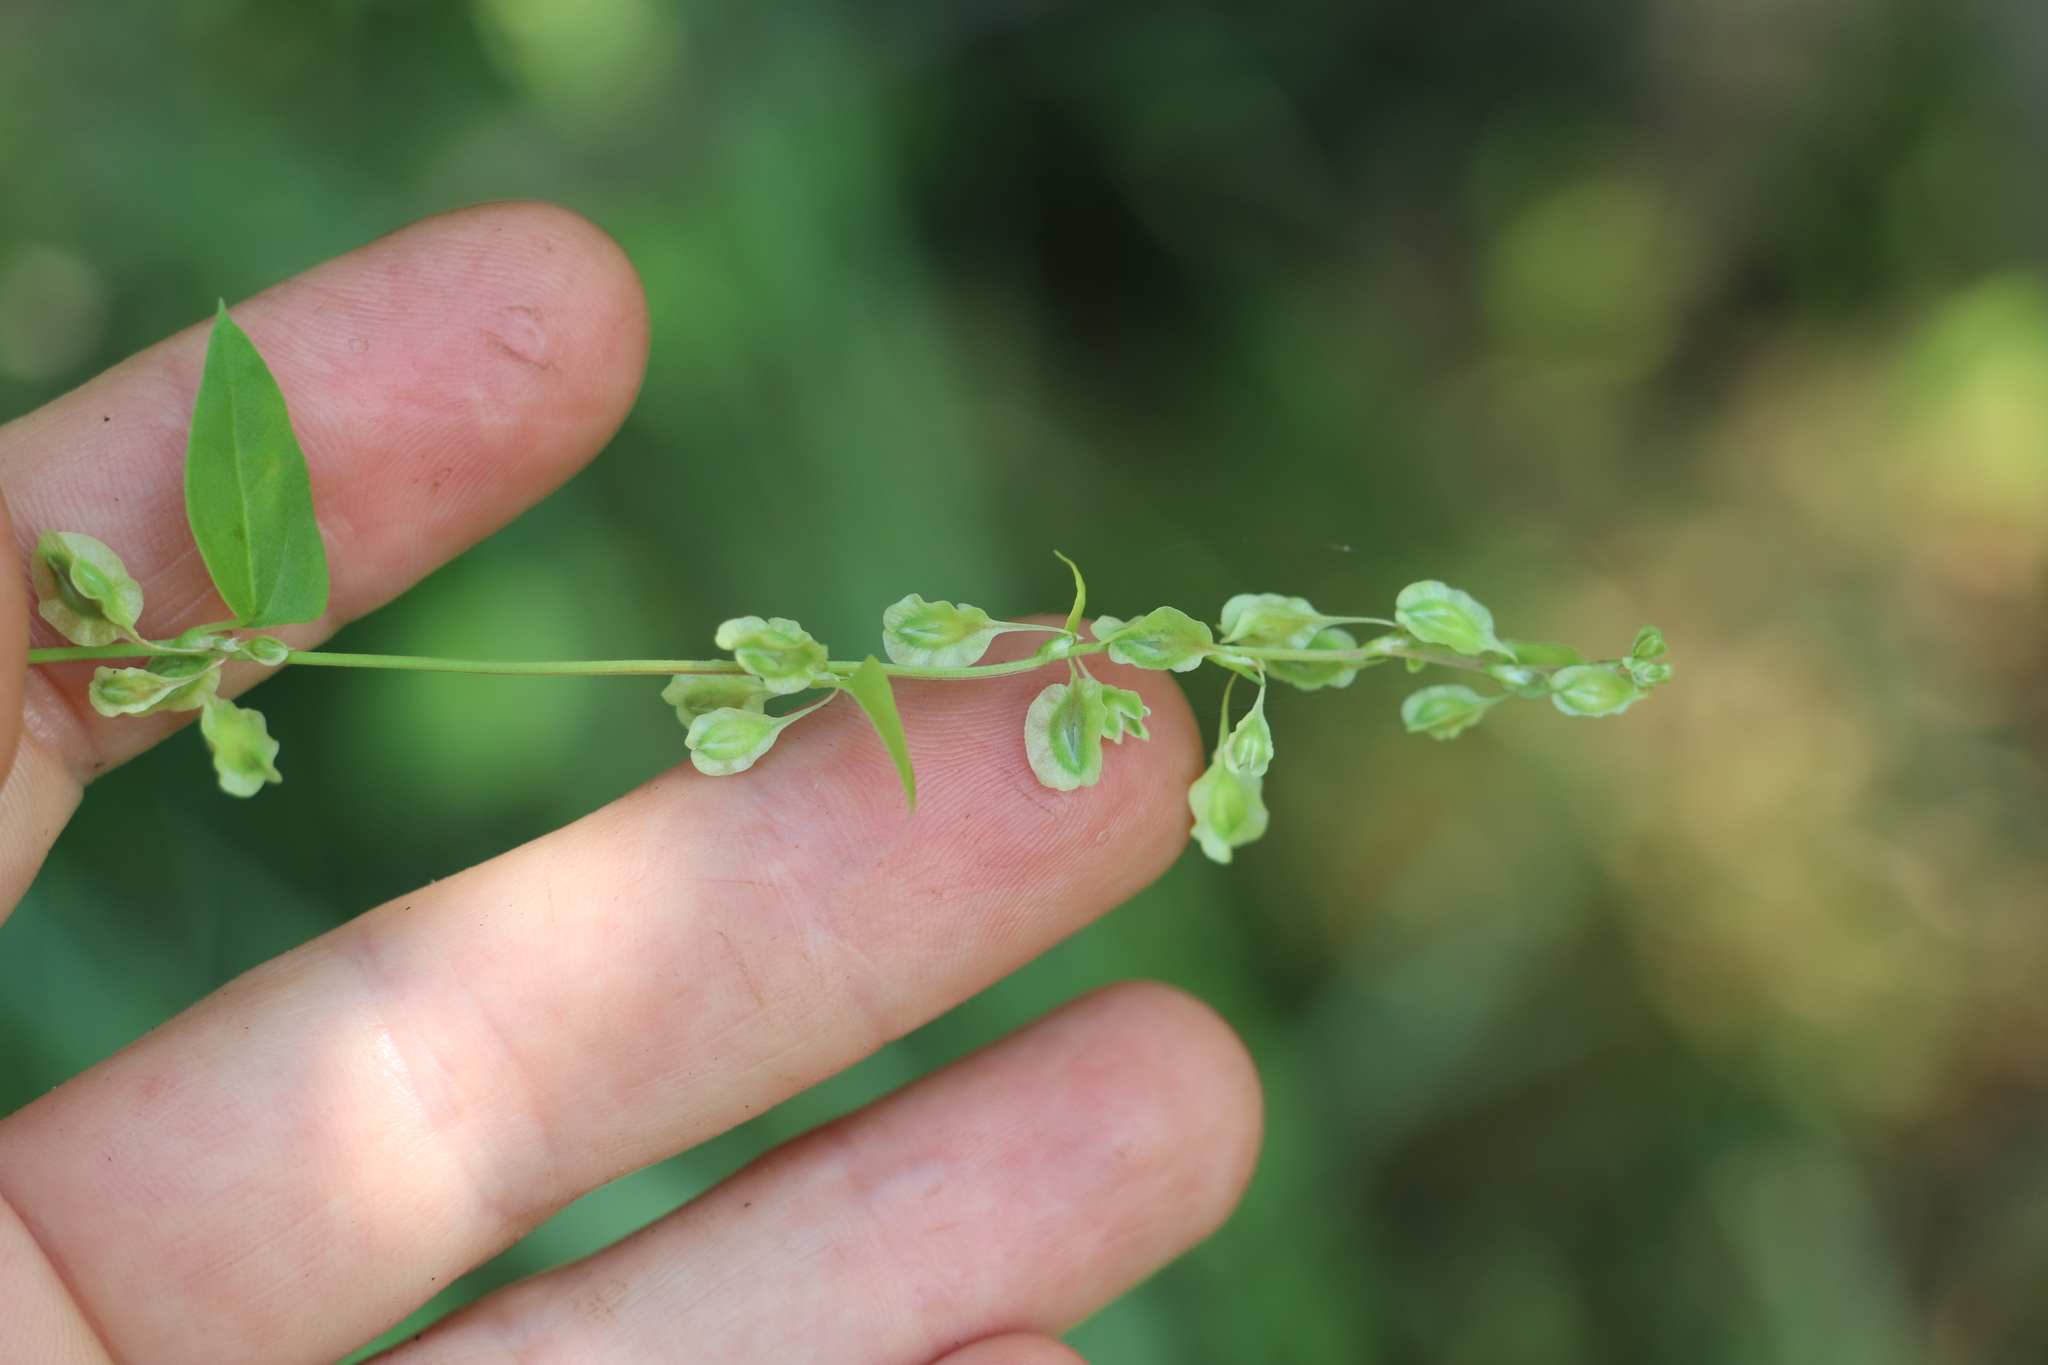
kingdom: Plantae
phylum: Tracheophyta
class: Magnoliopsida
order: Caryophyllales
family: Polygonaceae
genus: Fallopia
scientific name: Fallopia dumetorum
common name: Copse-bindweed
